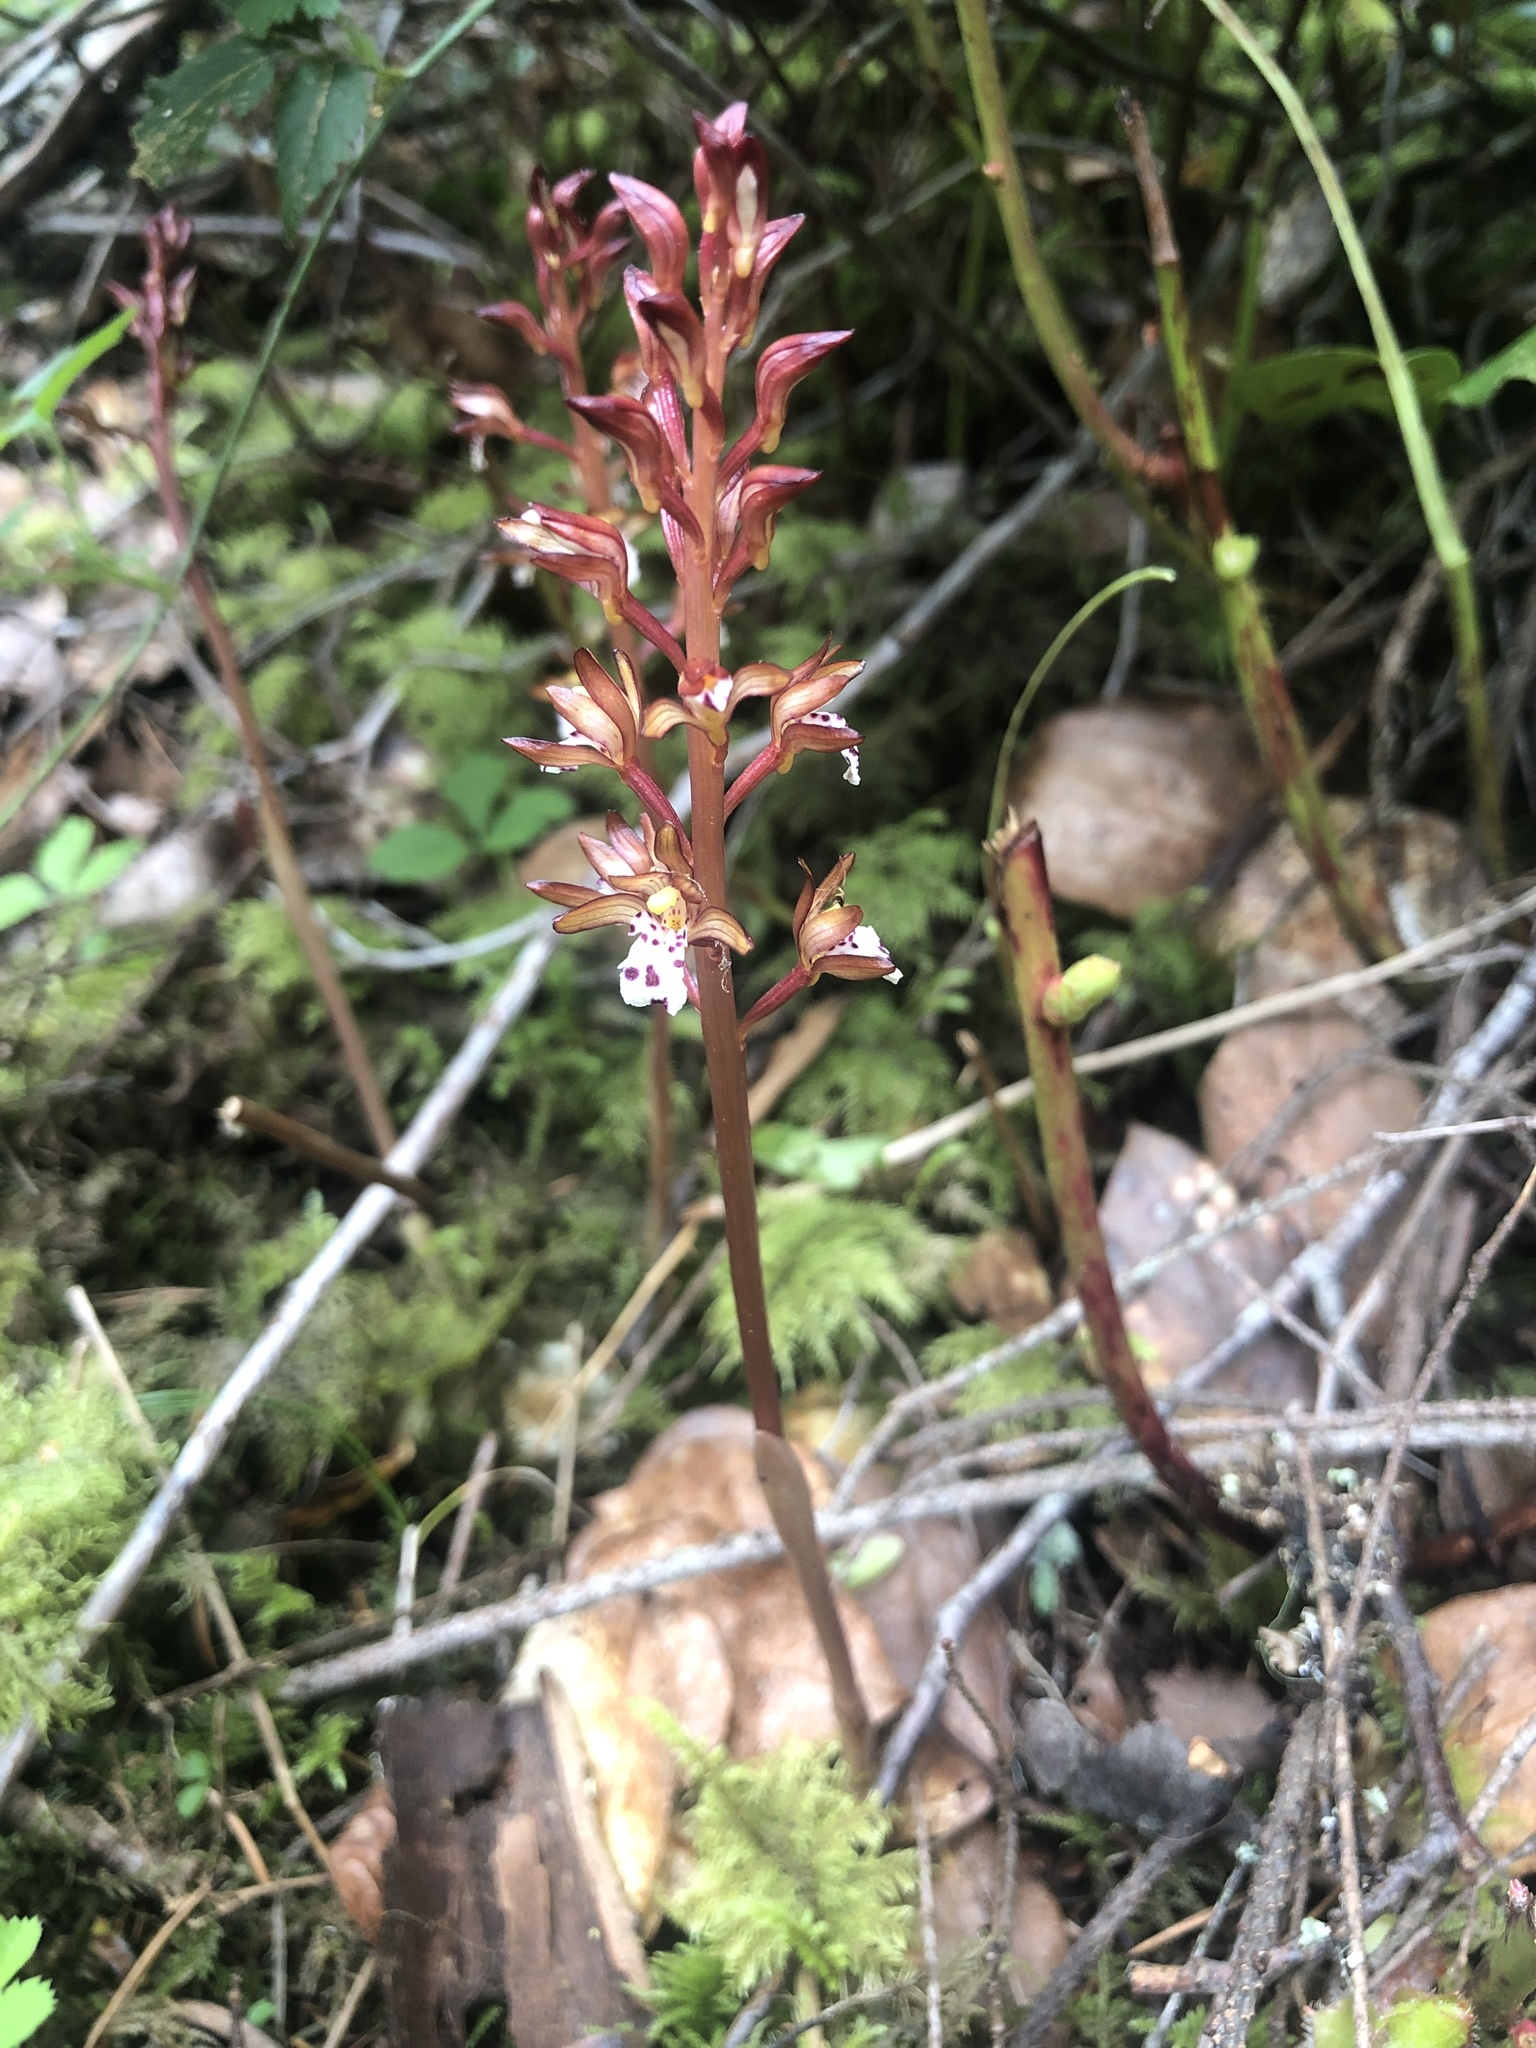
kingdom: Plantae
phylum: Tracheophyta
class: Liliopsida
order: Asparagales
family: Orchidaceae
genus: Corallorhiza
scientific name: Corallorhiza maculata
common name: Spotted coralroot
